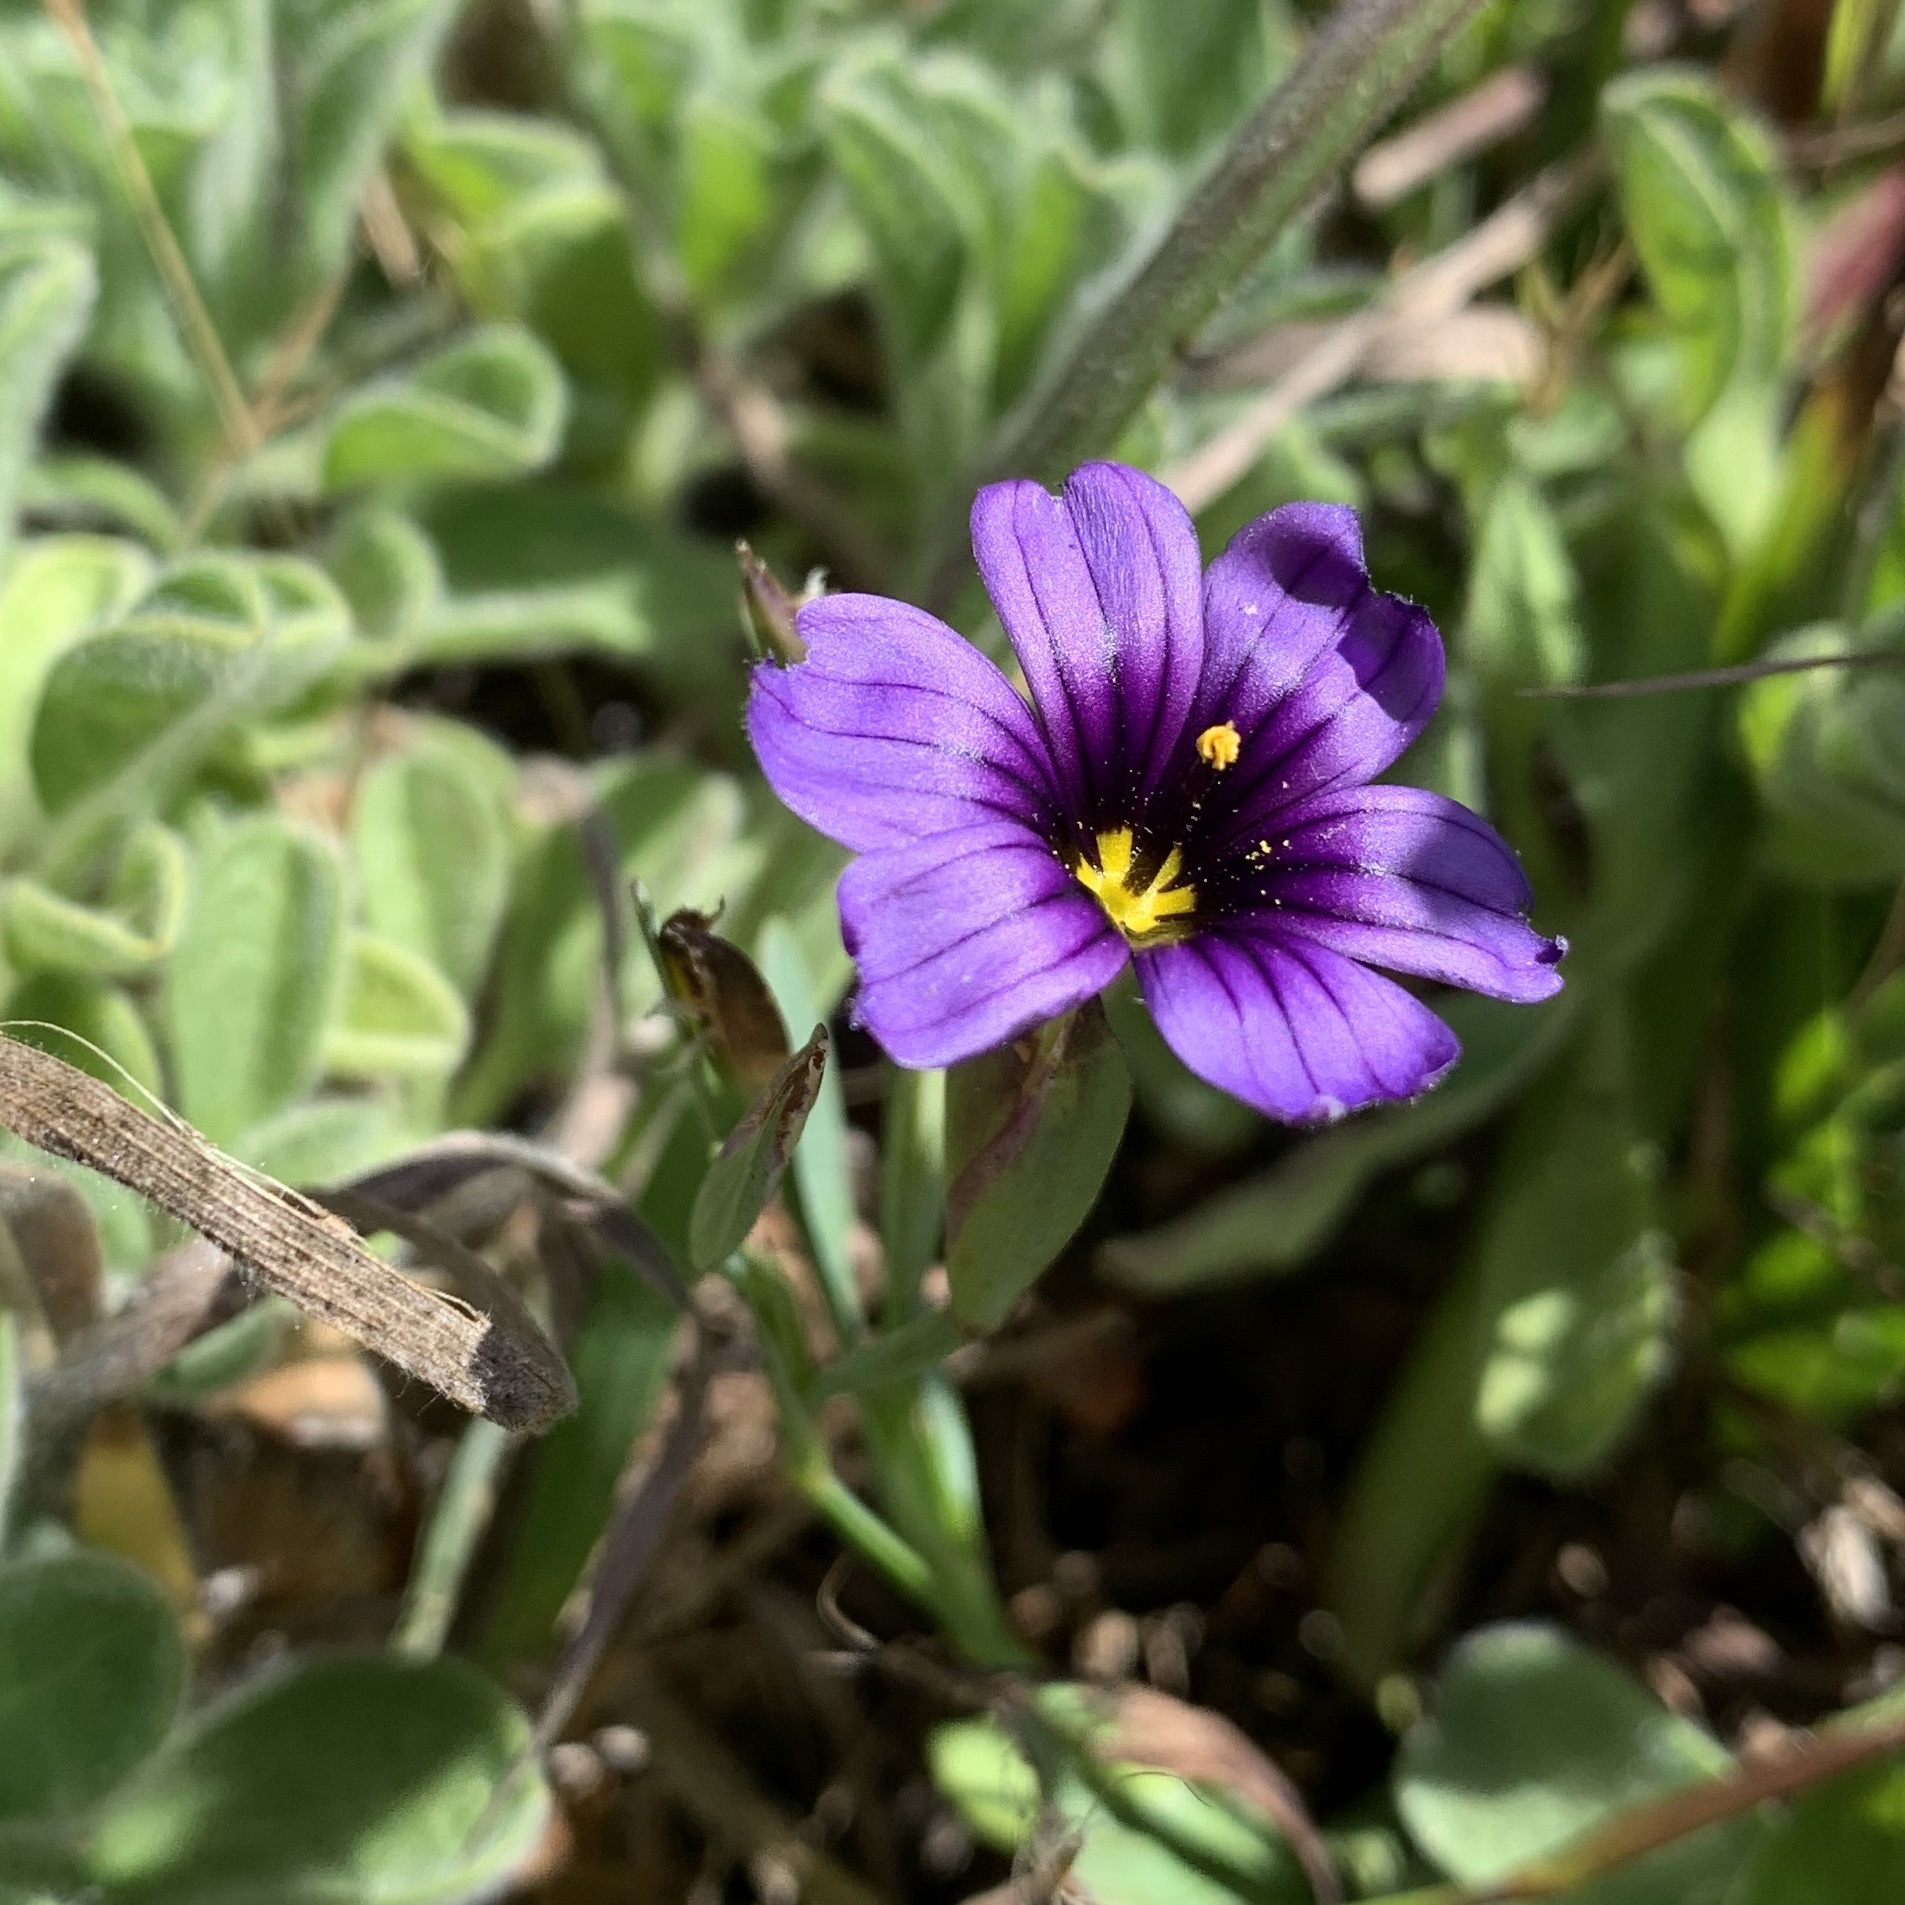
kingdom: Plantae
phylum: Tracheophyta
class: Liliopsida
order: Asparagales
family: Iridaceae
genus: Sisyrinchium
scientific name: Sisyrinchium bellum
